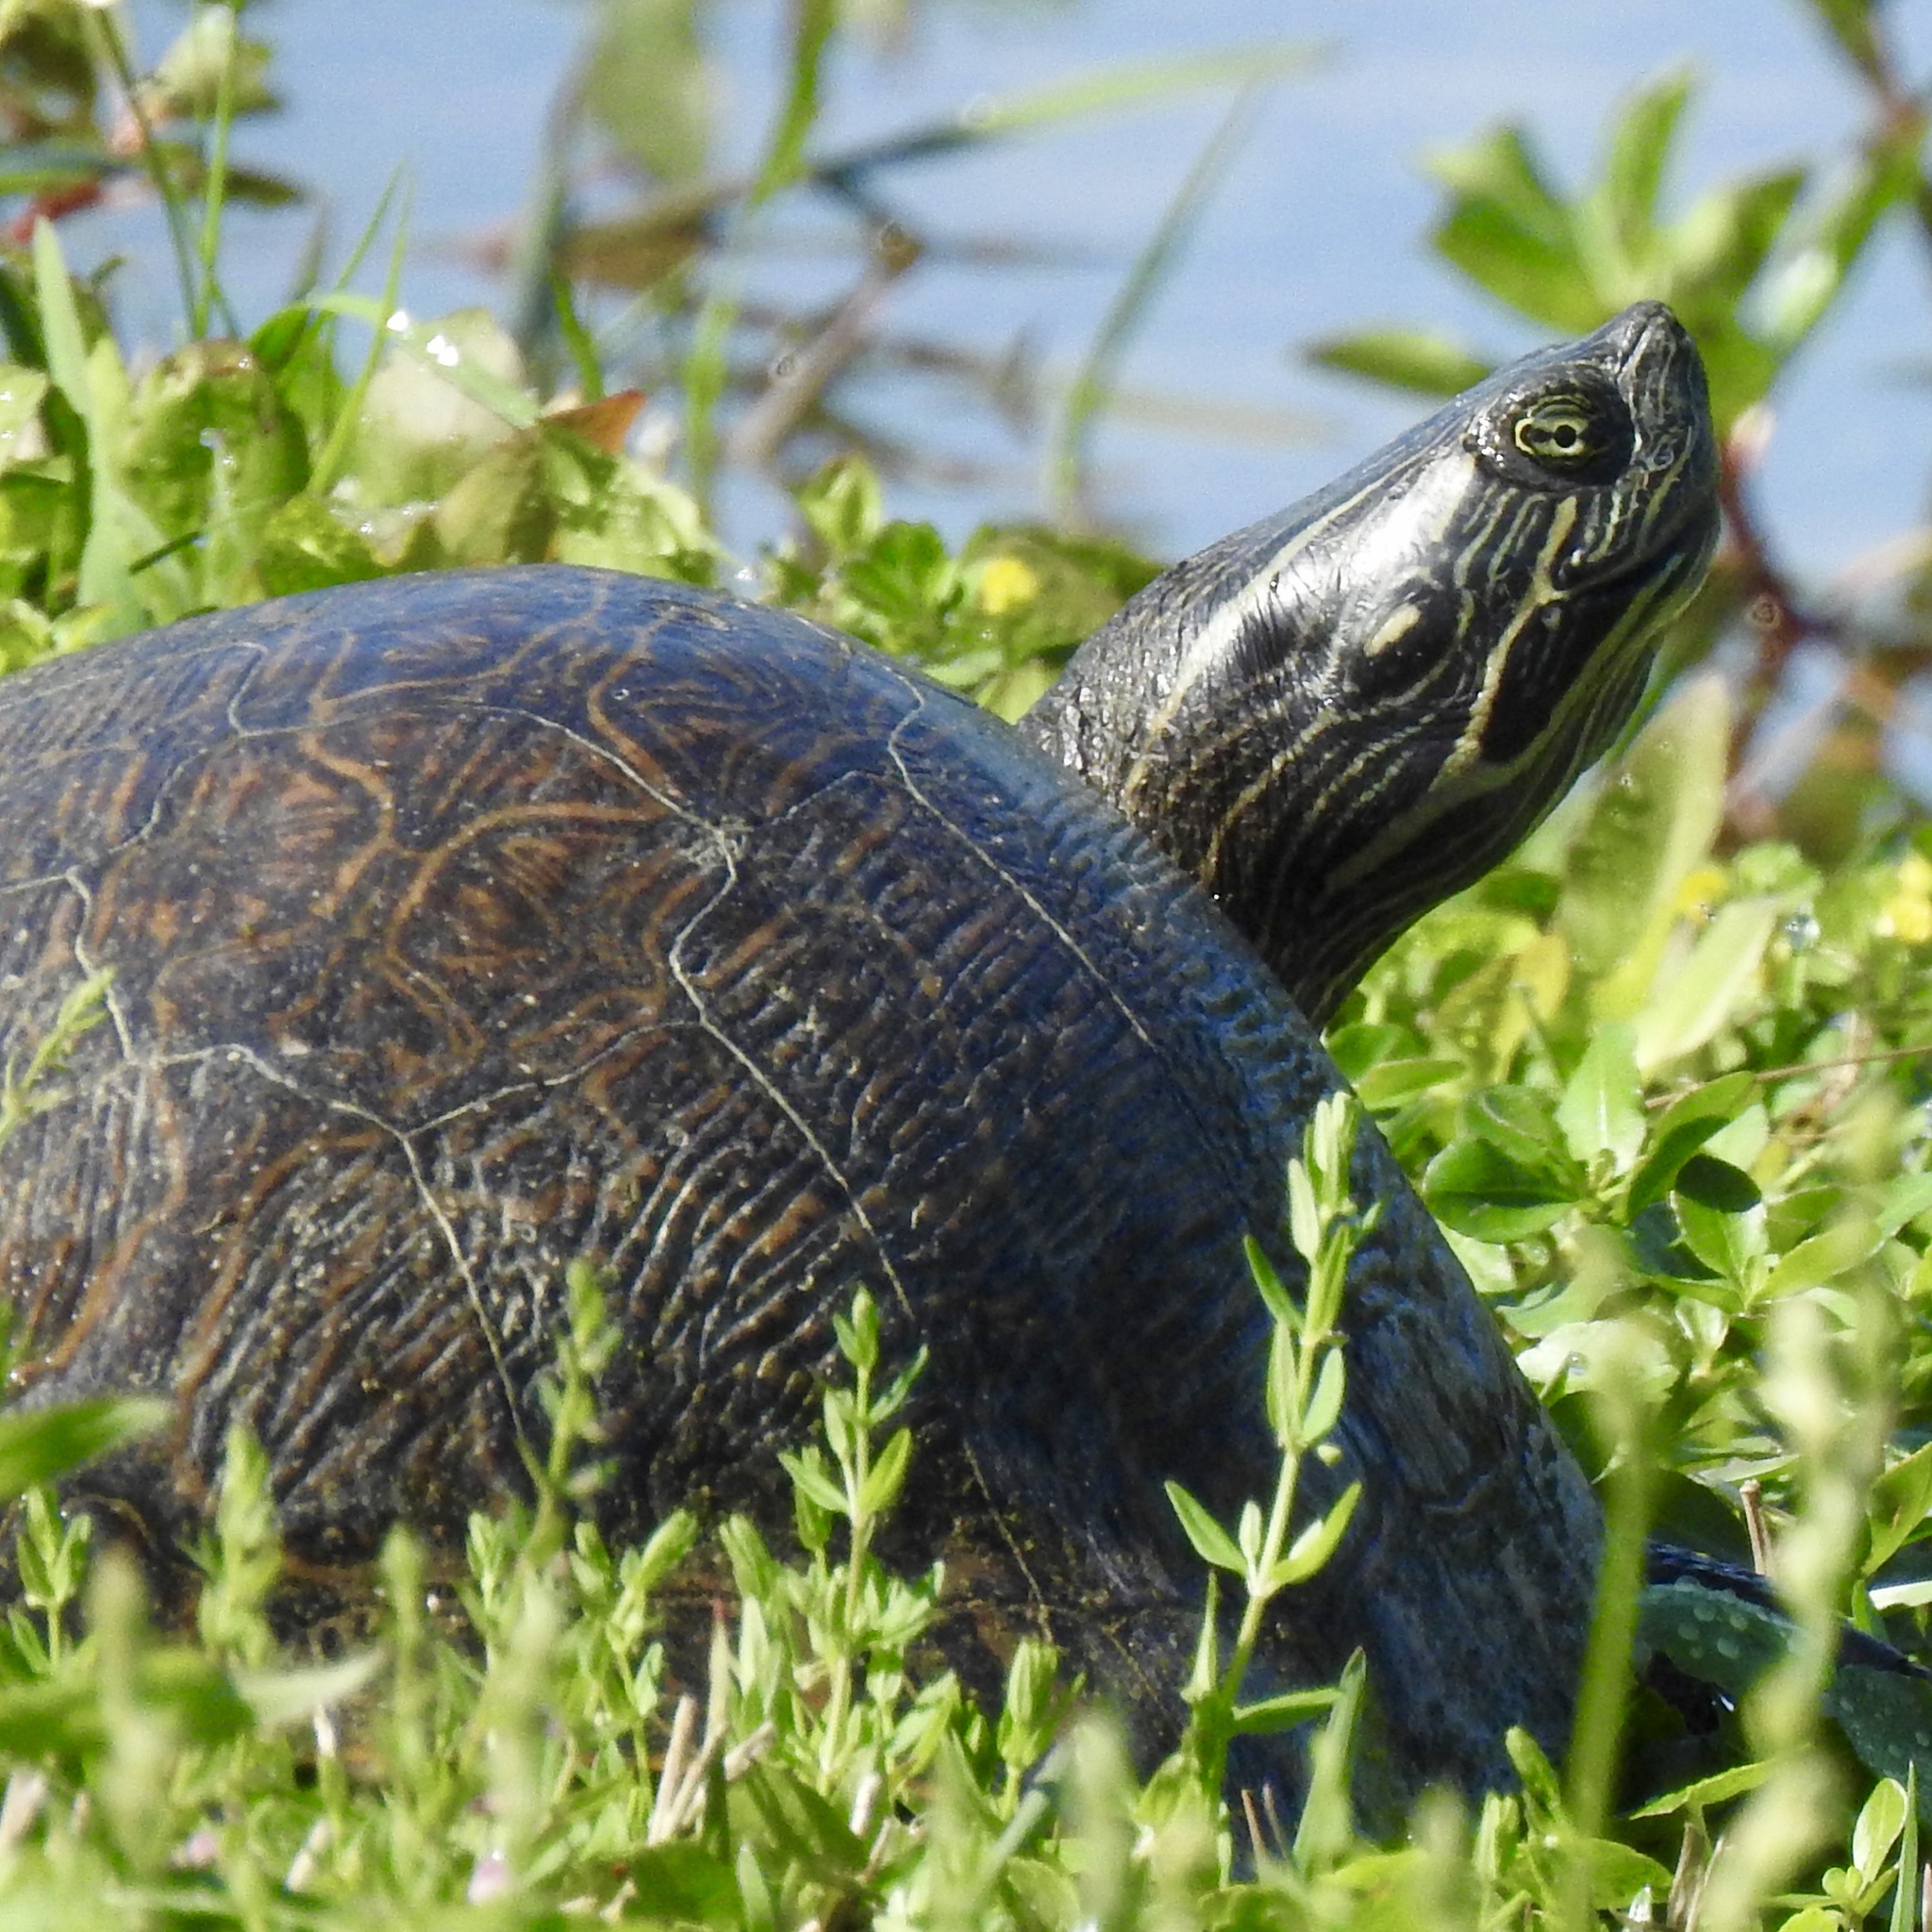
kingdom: Animalia
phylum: Chordata
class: Testudines
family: Emydidae
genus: Pseudemys
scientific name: Pseudemys concinna
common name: Eastern river cooter
